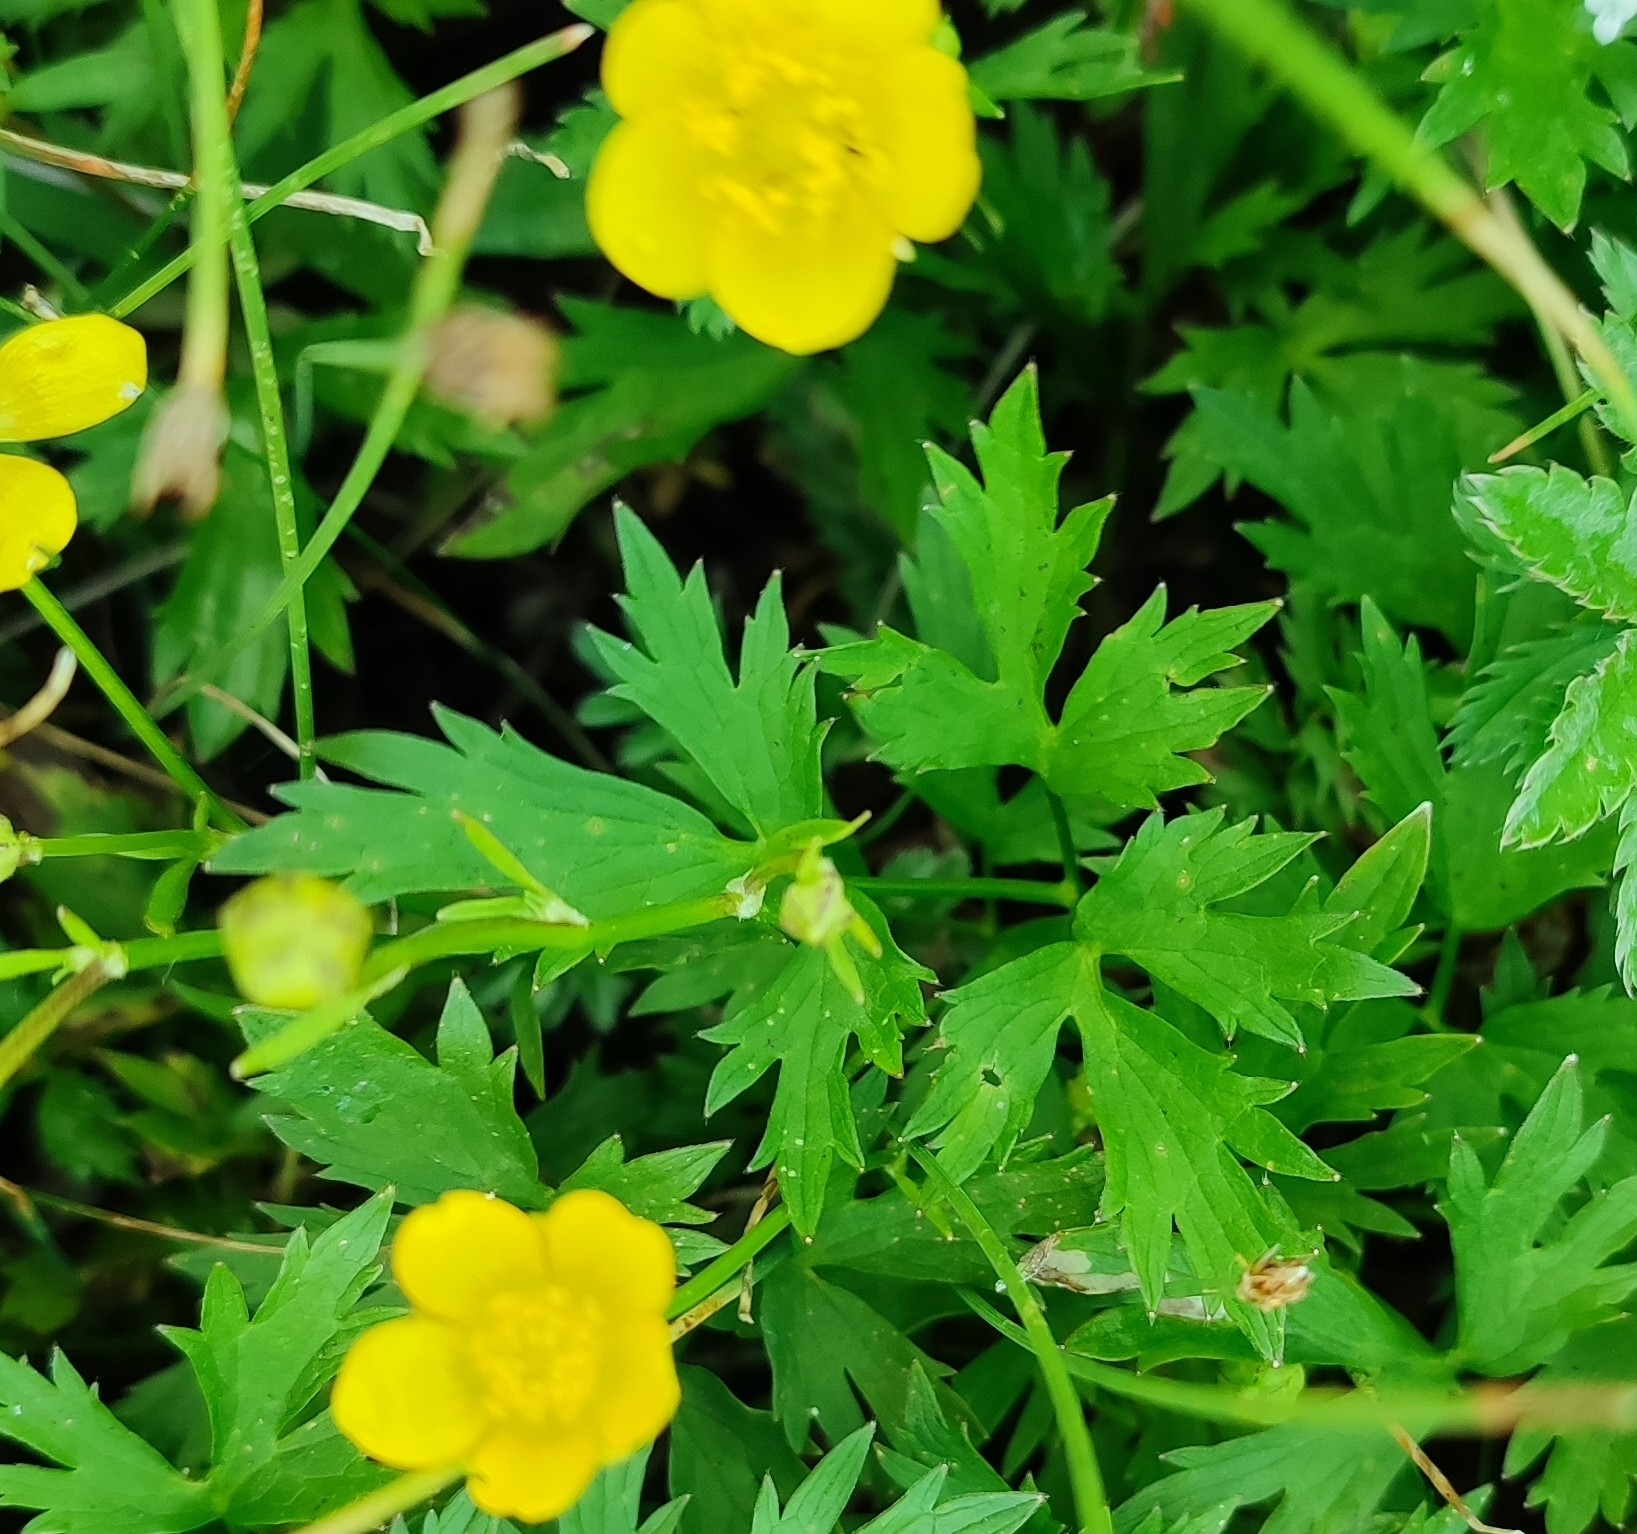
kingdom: Plantae
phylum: Tracheophyta
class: Magnoliopsida
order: Ranunculales
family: Ranunculaceae
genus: Ranunculus
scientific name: Ranunculus repens
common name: Creeping buttercup
